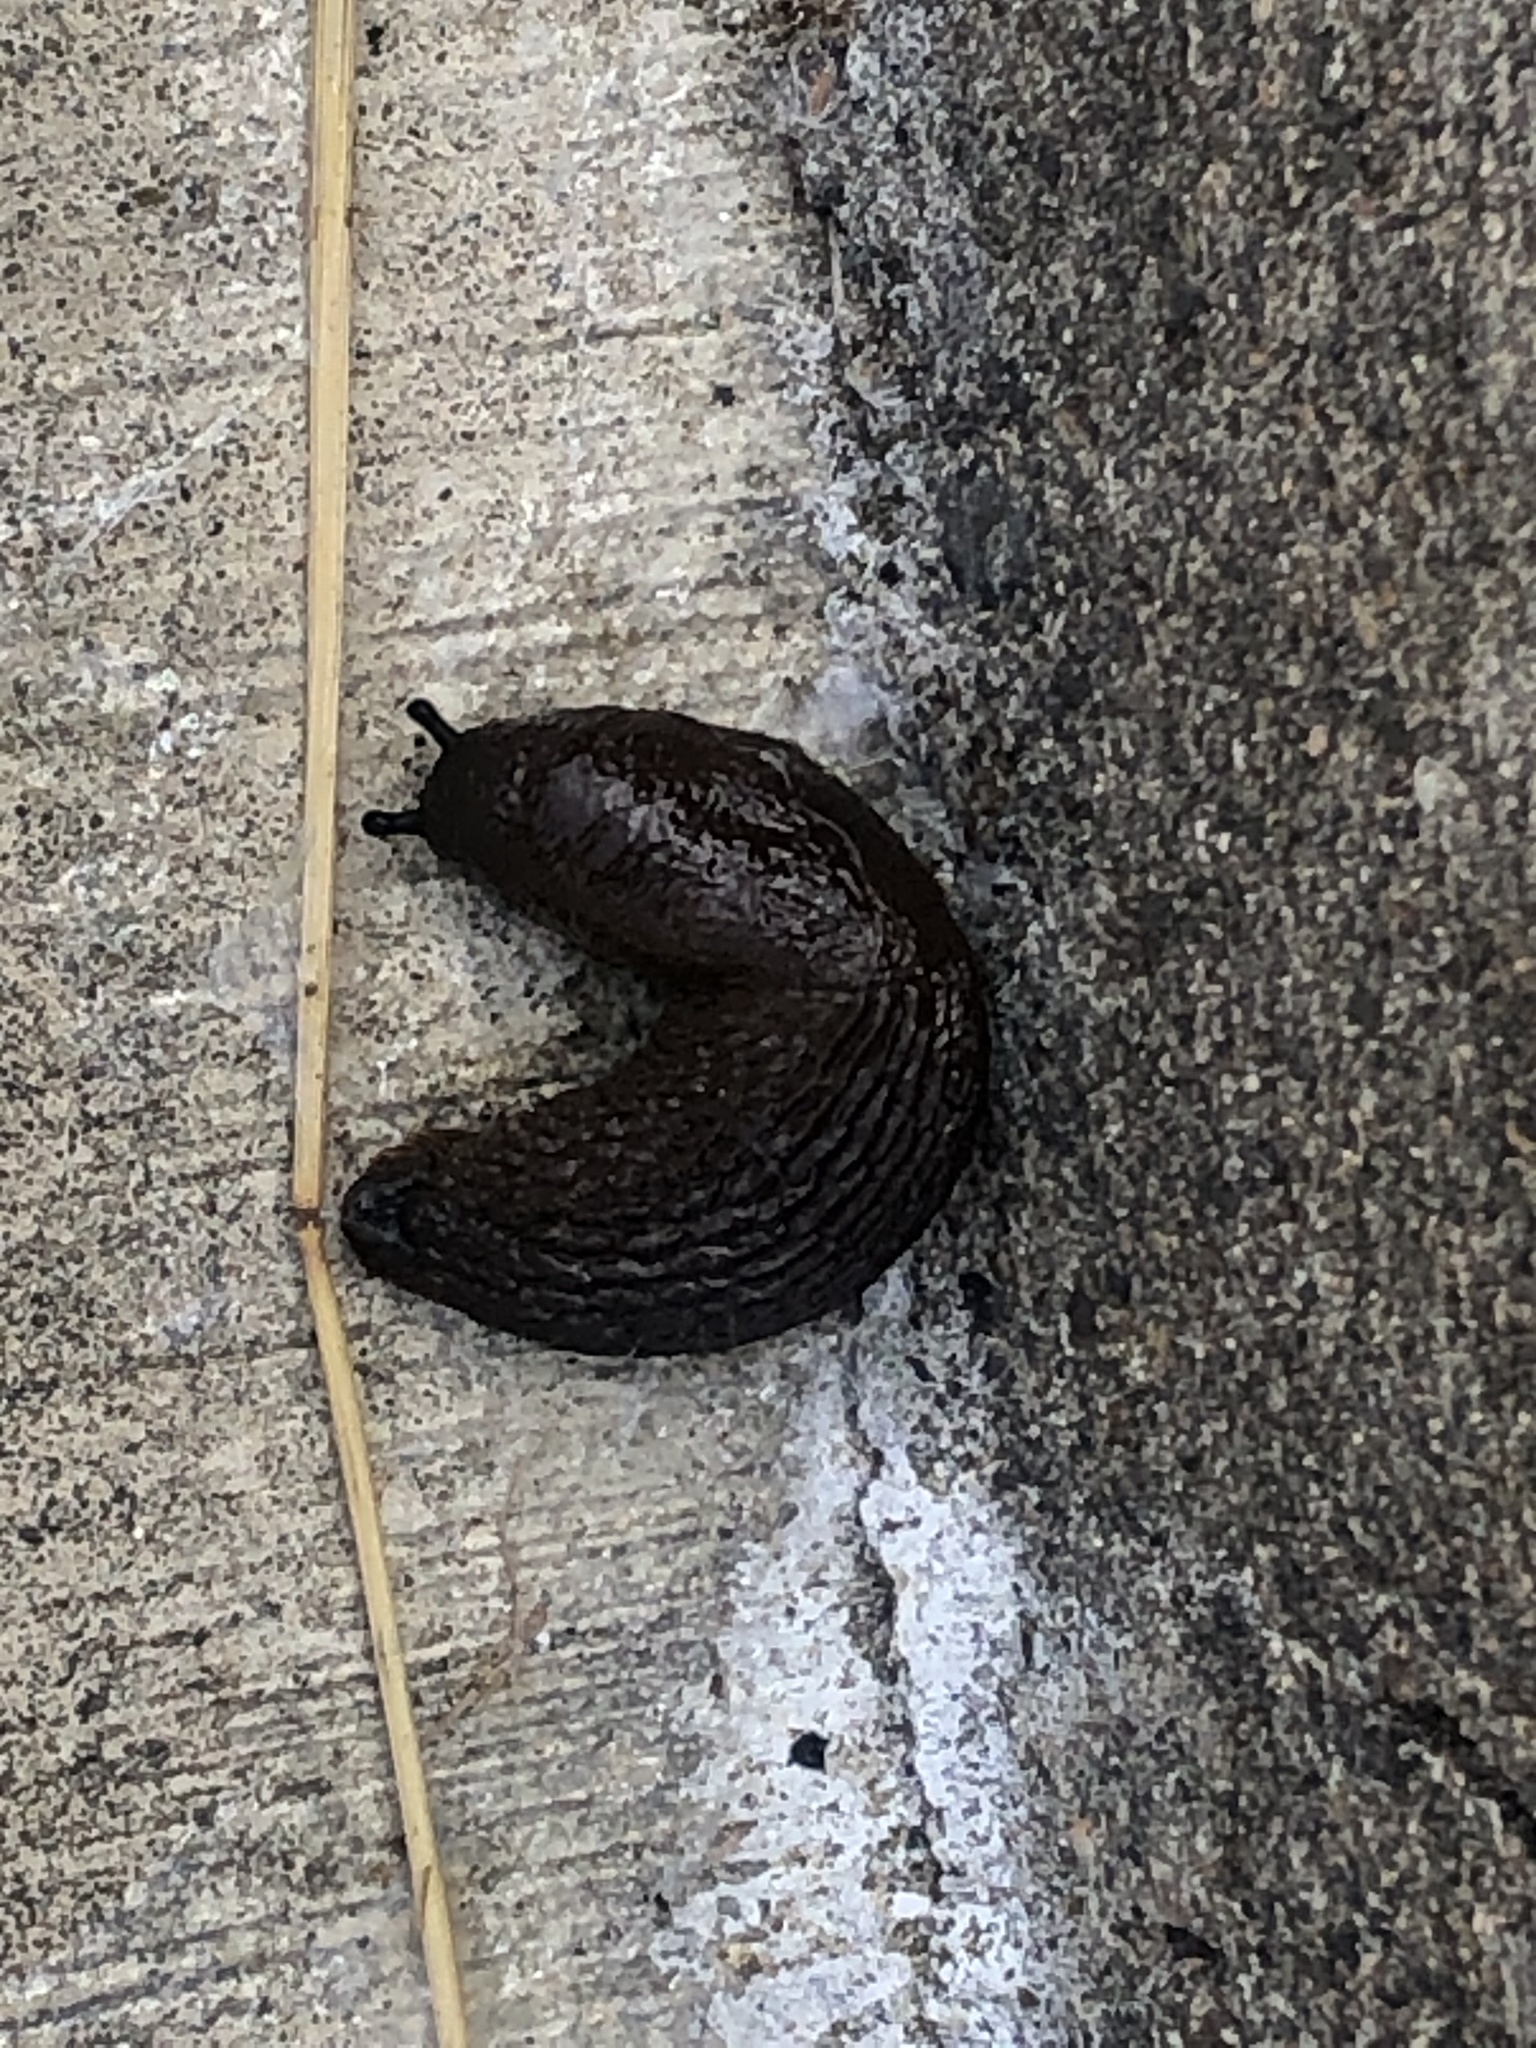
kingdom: Animalia
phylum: Mollusca
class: Gastropoda
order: Stylommatophora
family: Arionidae
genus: Arion
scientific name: Arion
